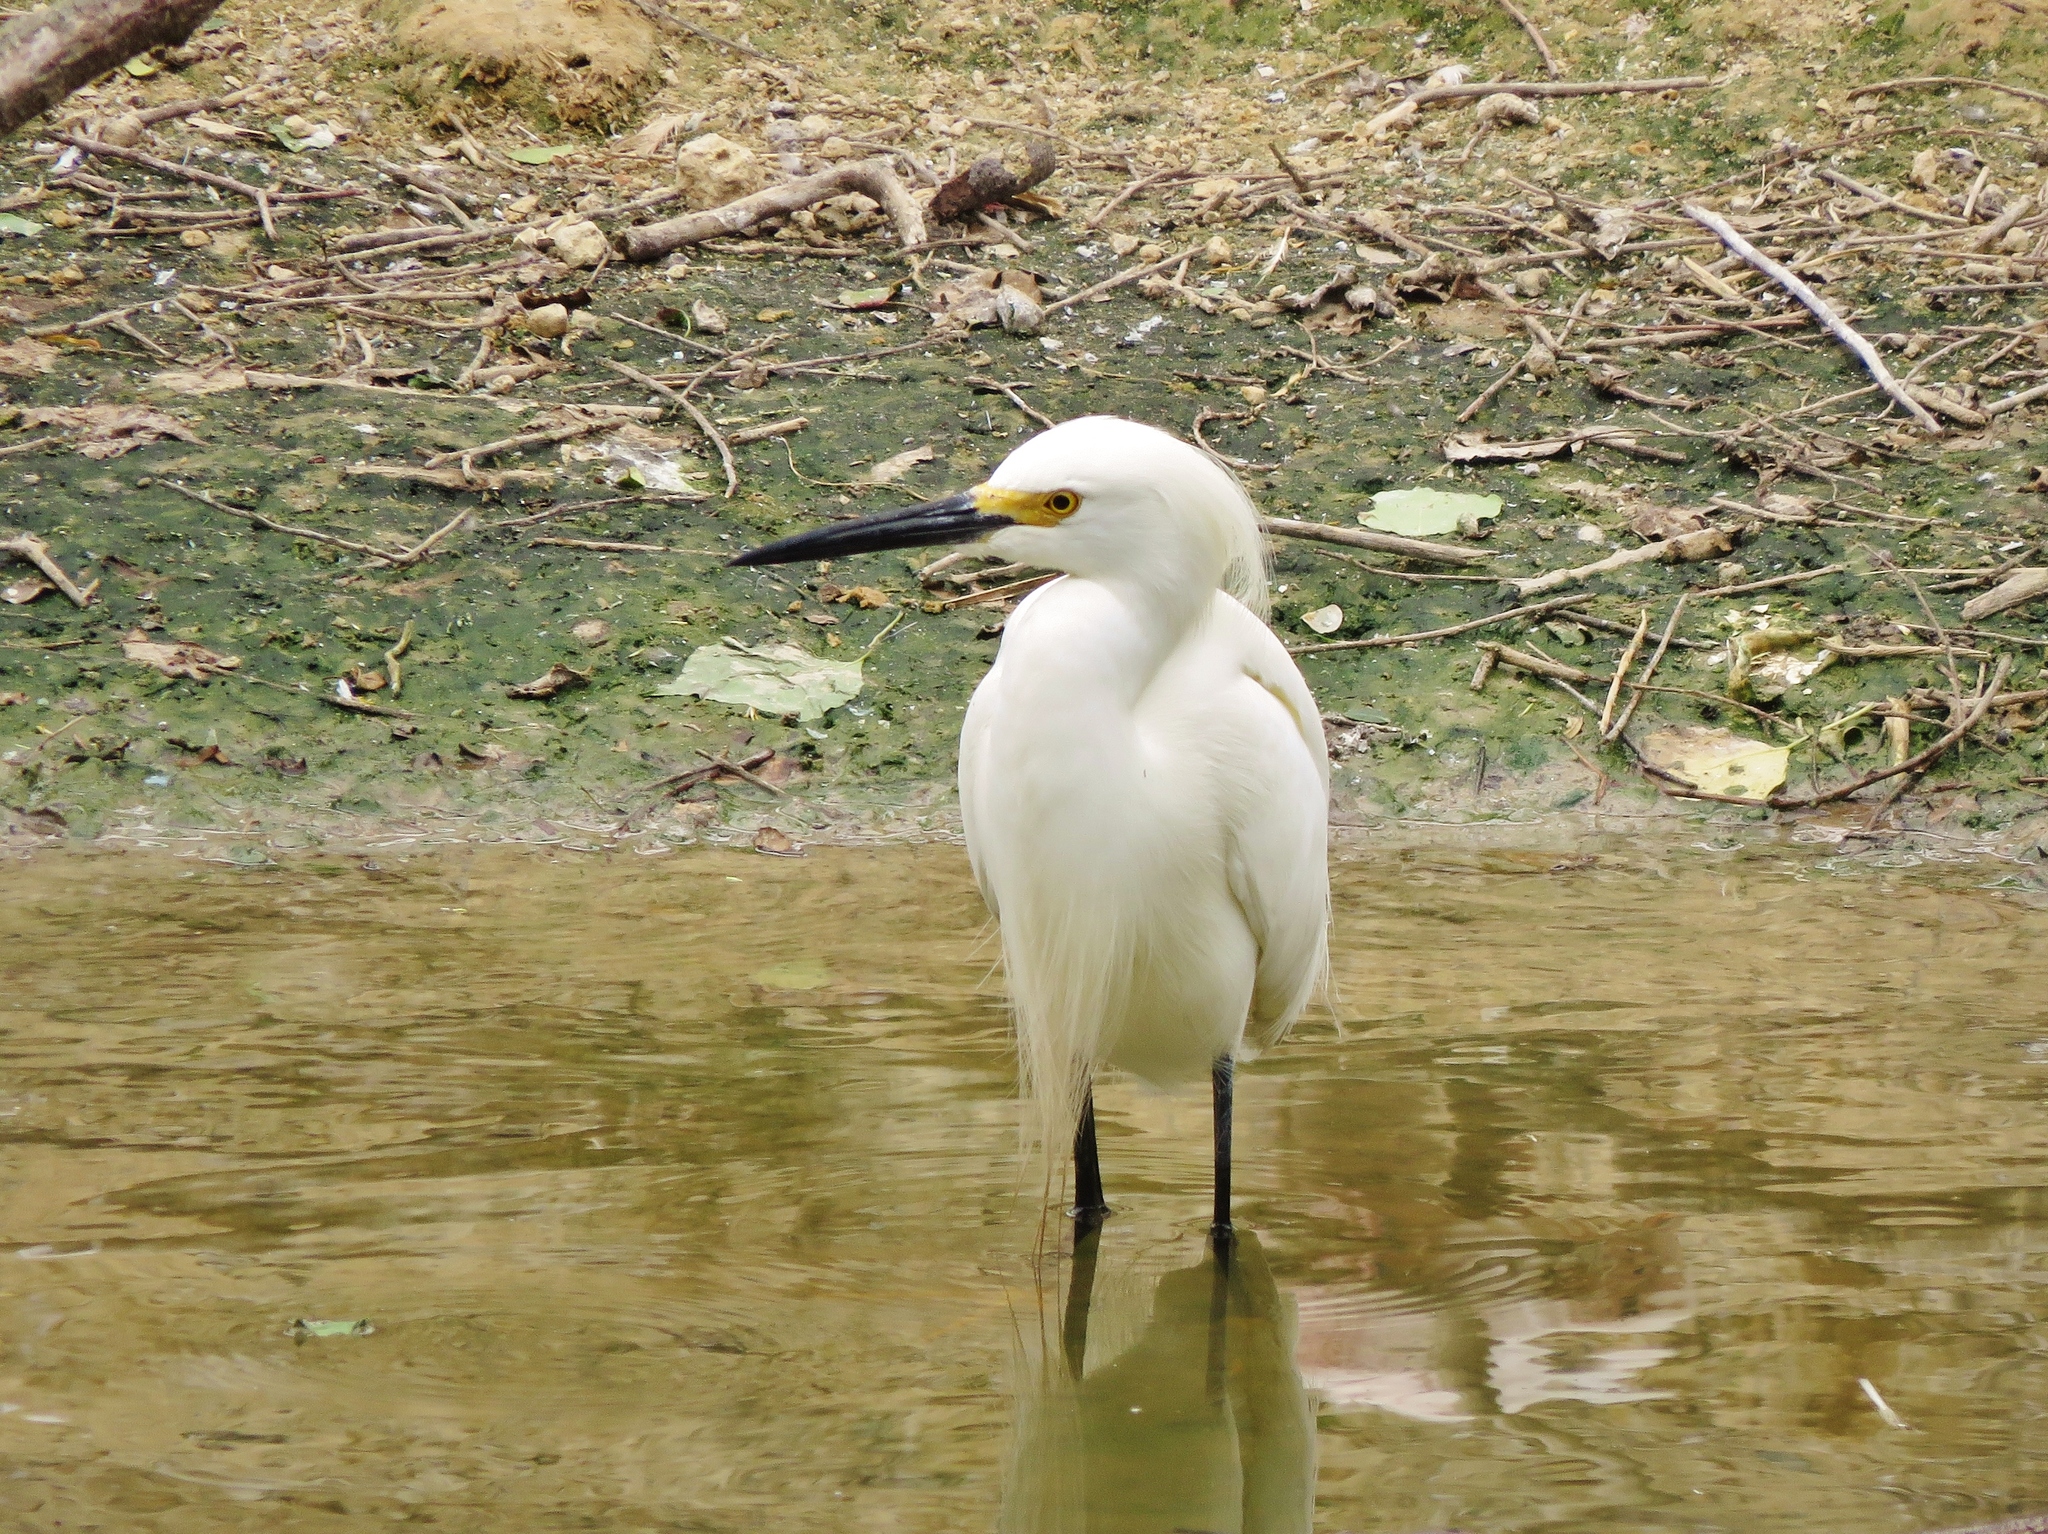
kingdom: Animalia
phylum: Chordata
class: Aves
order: Pelecaniformes
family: Ardeidae
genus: Egretta
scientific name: Egretta thula
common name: Snowy egret
